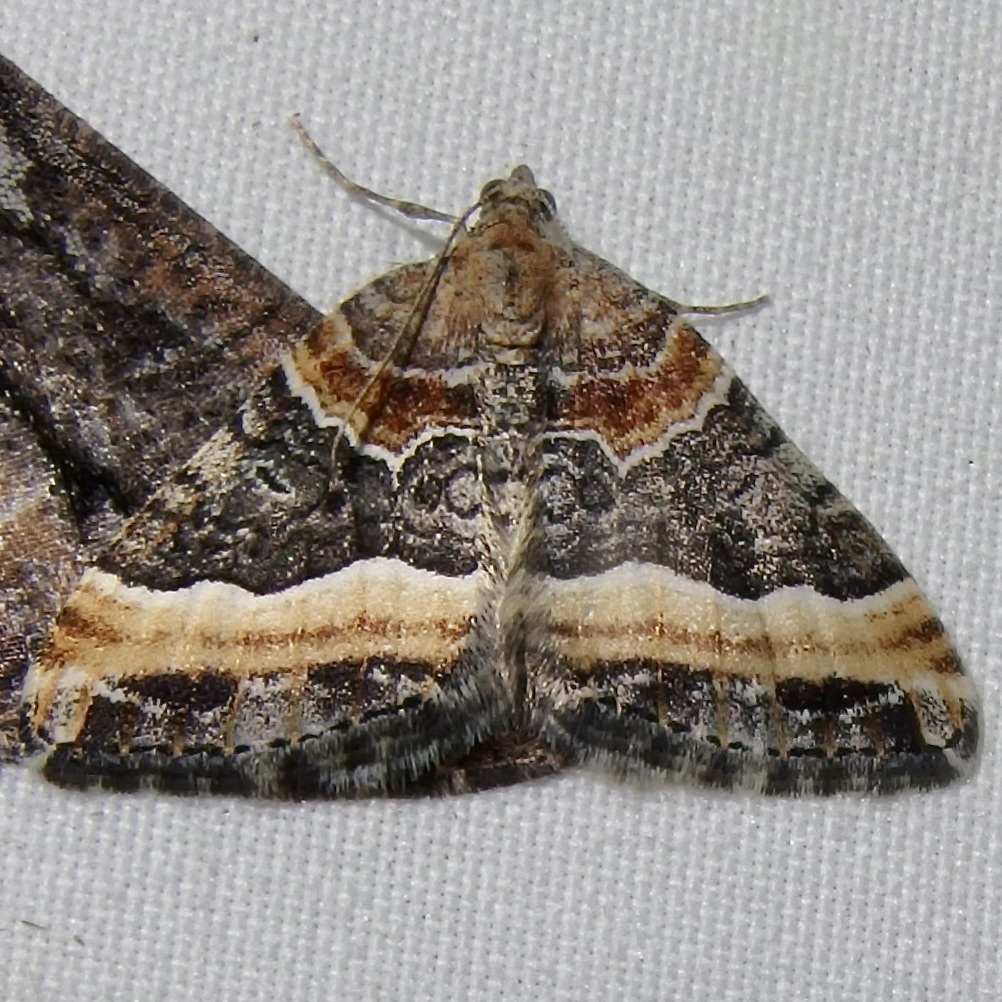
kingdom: Animalia
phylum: Arthropoda
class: Insecta
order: Lepidoptera
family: Geometridae
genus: Xanthorhoe
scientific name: Xanthorhoe mirabilata
